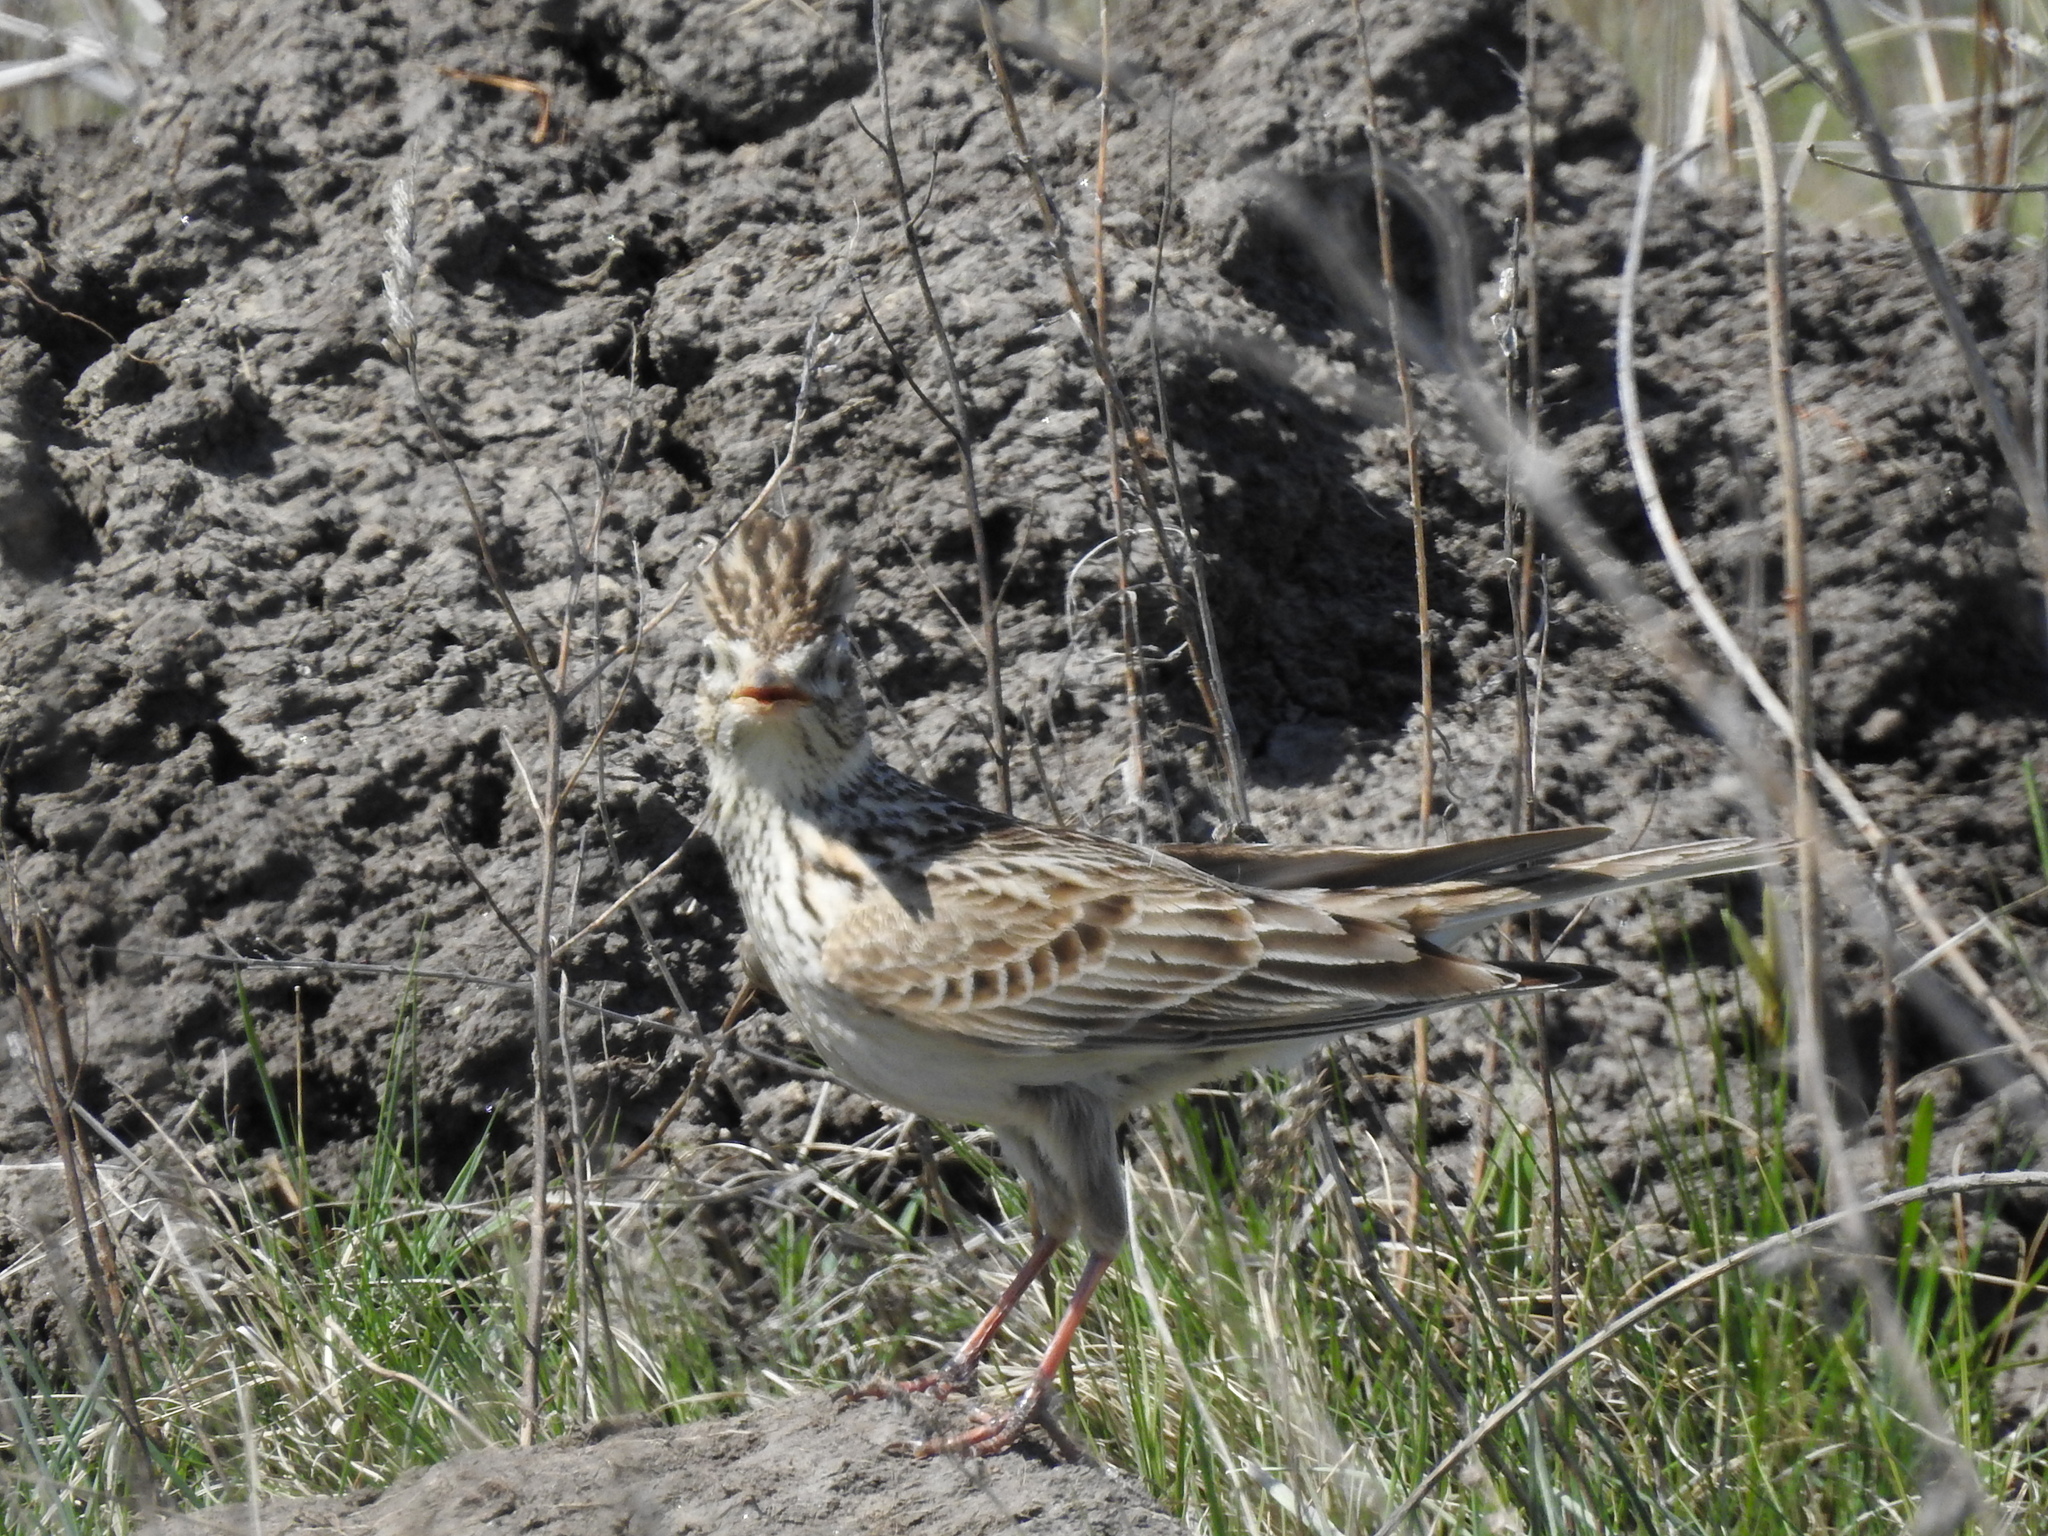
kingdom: Animalia
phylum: Chordata
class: Aves
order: Passeriformes
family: Alaudidae
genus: Galerida
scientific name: Galerida cristata
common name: Crested lark
